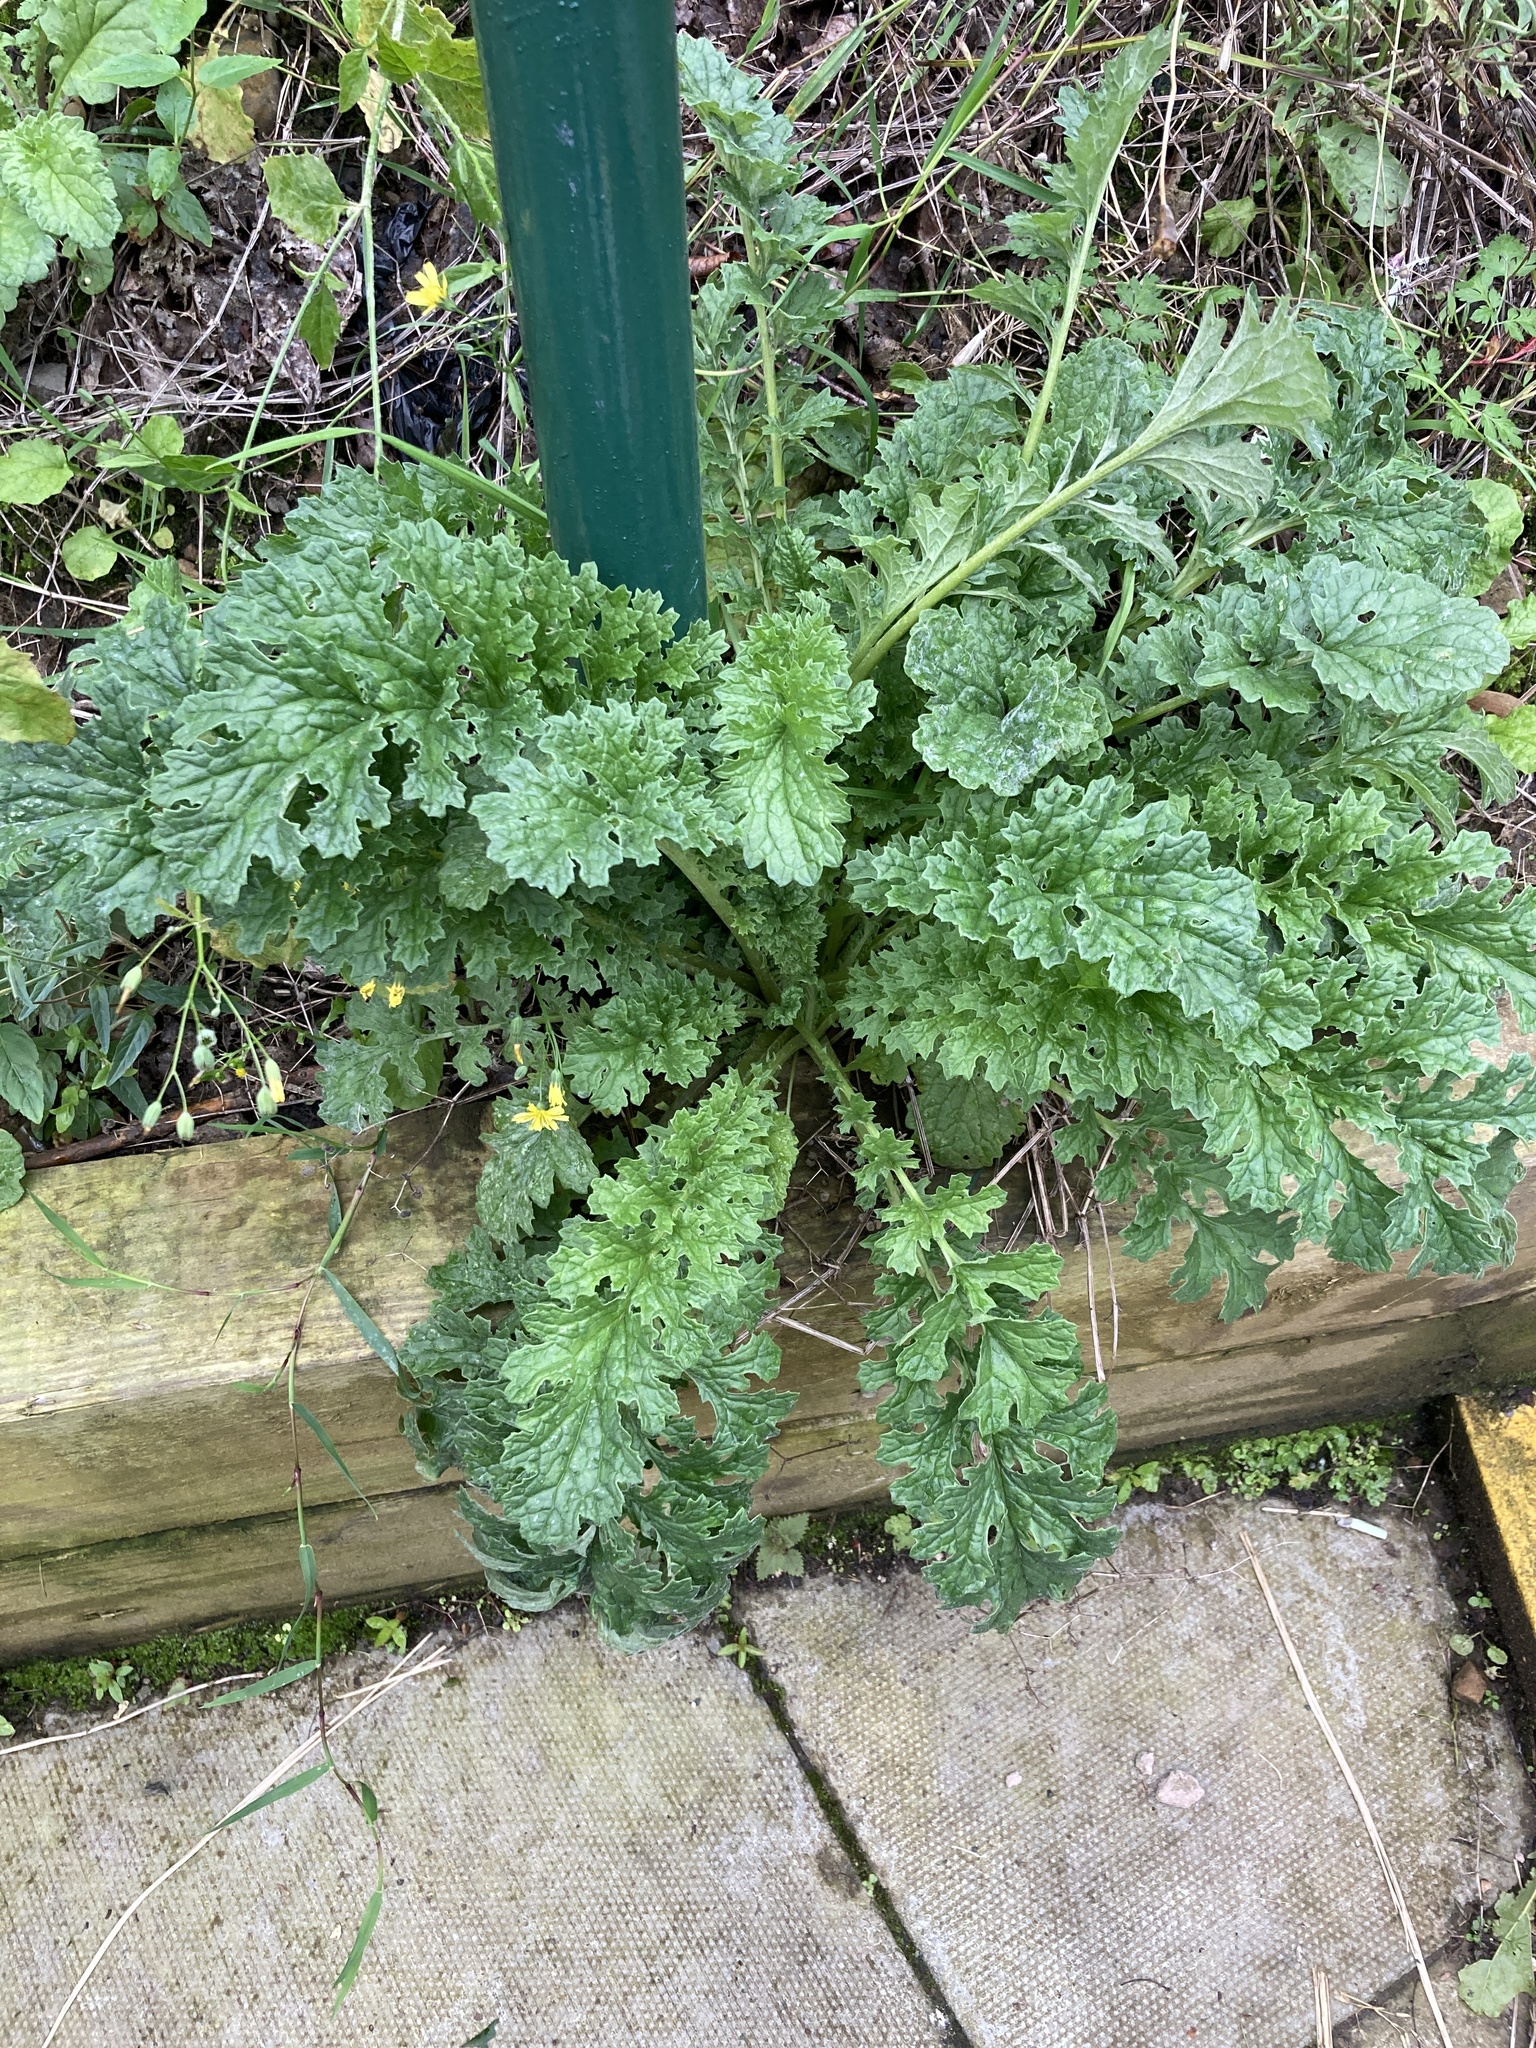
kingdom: Plantae
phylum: Tracheophyta
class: Magnoliopsida
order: Asterales
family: Asteraceae
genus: Jacobaea
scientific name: Jacobaea vulgaris
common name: Stinking willie
